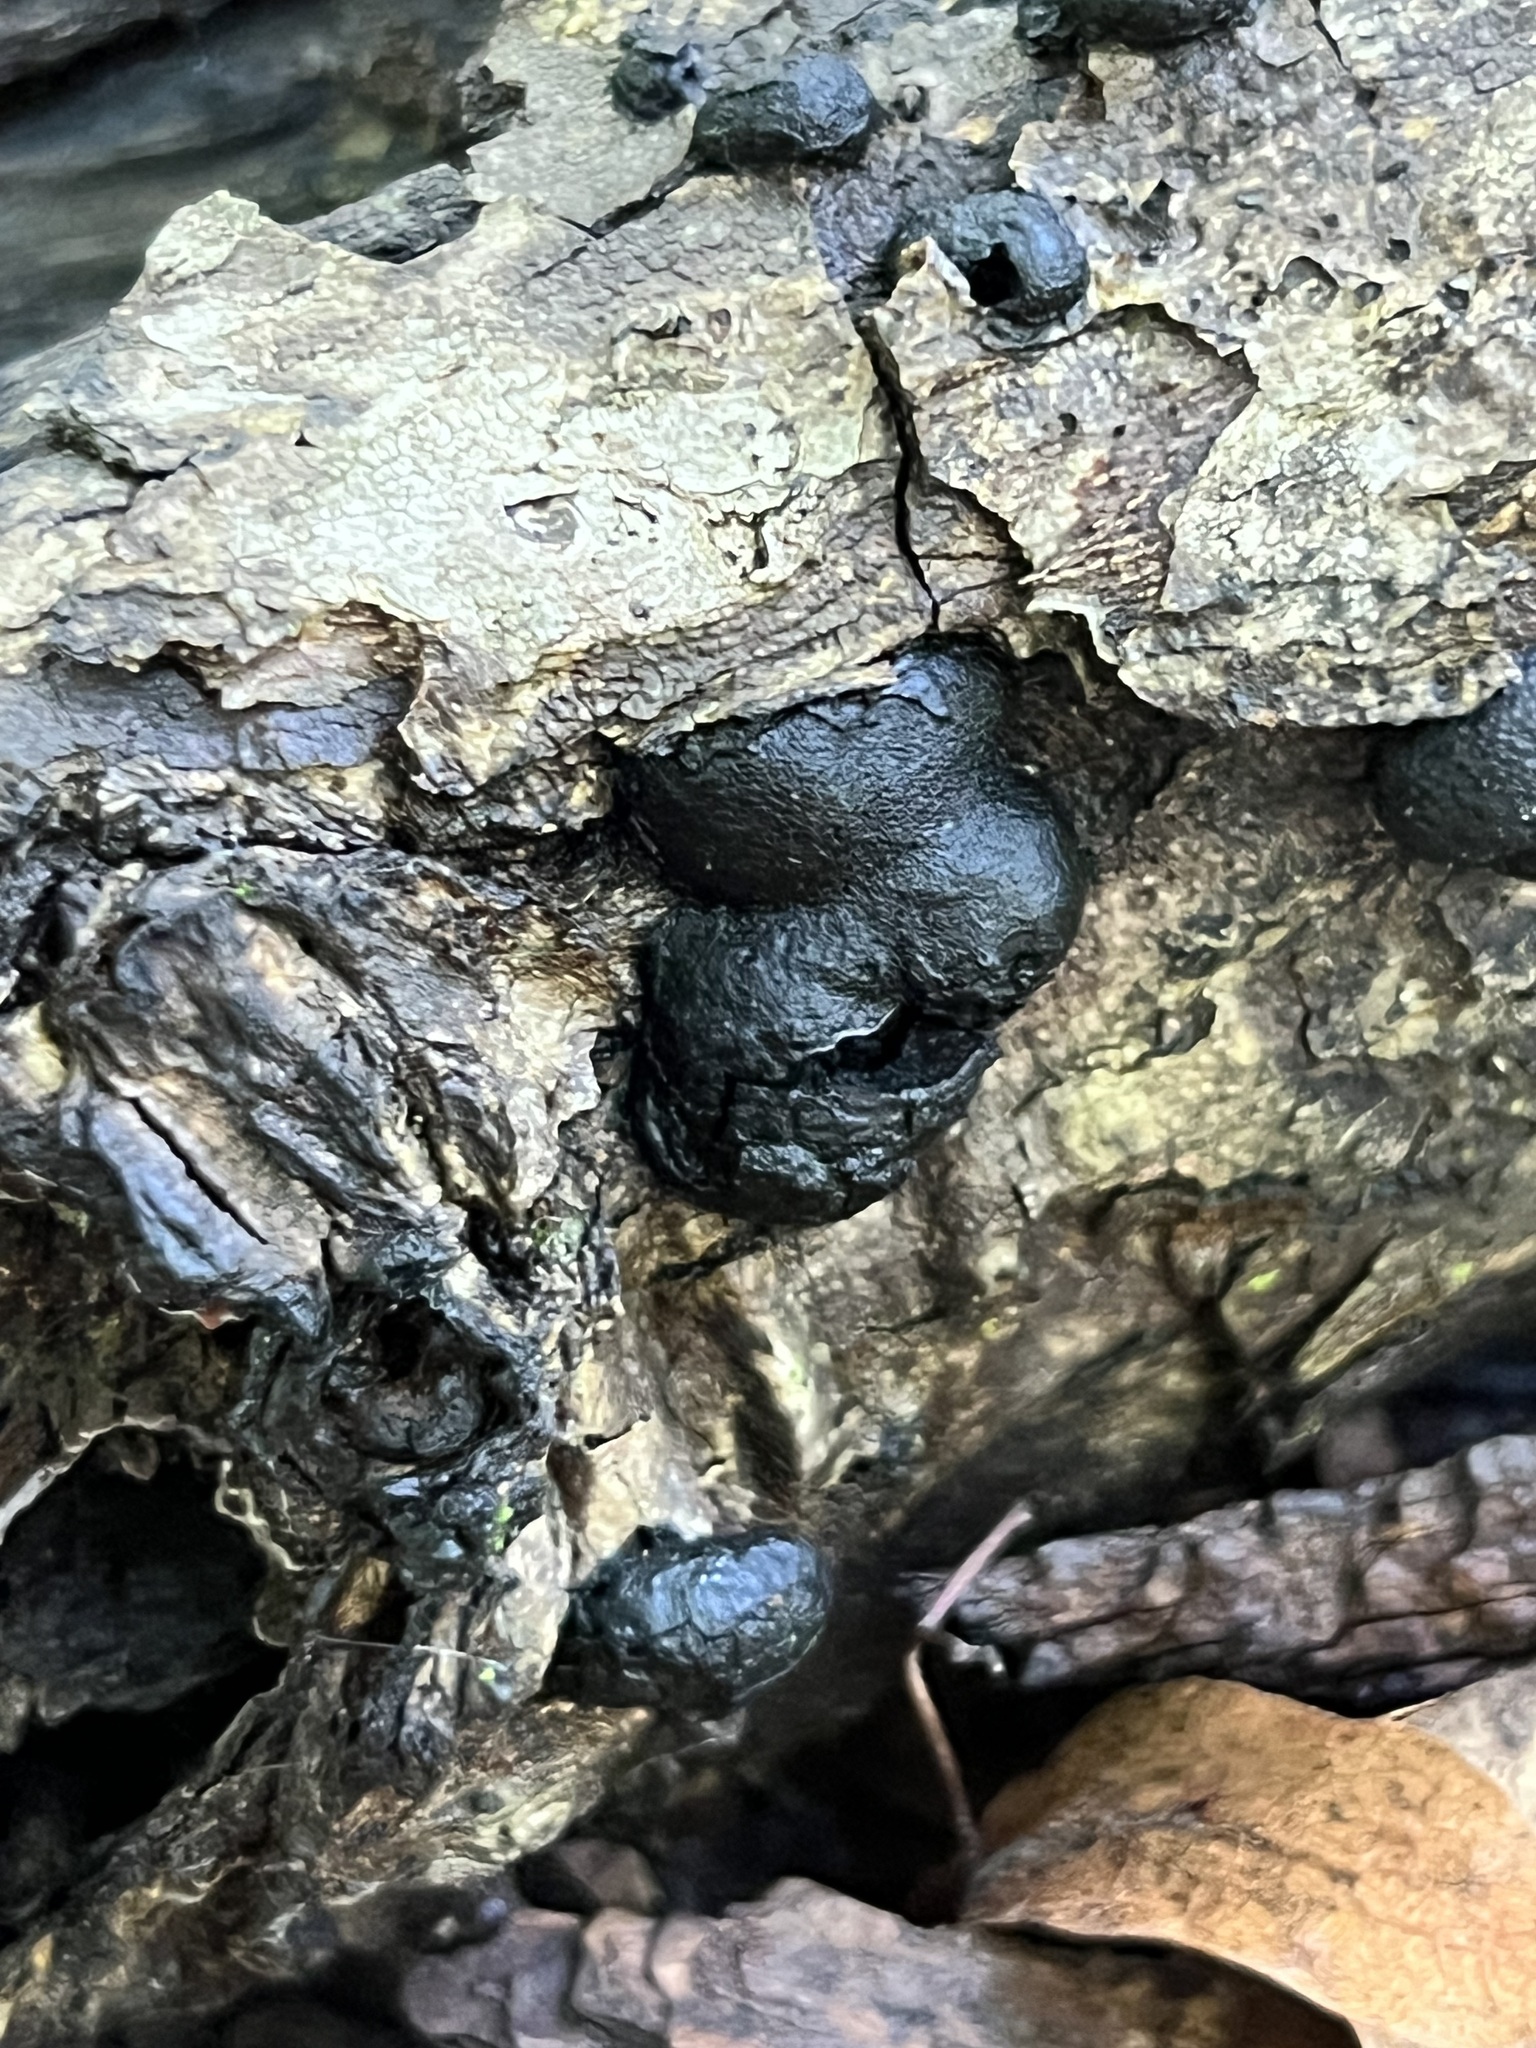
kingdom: Fungi
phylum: Ascomycota
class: Sordariomycetes
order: Xylariales
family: Hypoxylaceae
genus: Daldinia
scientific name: Daldinia childiae
